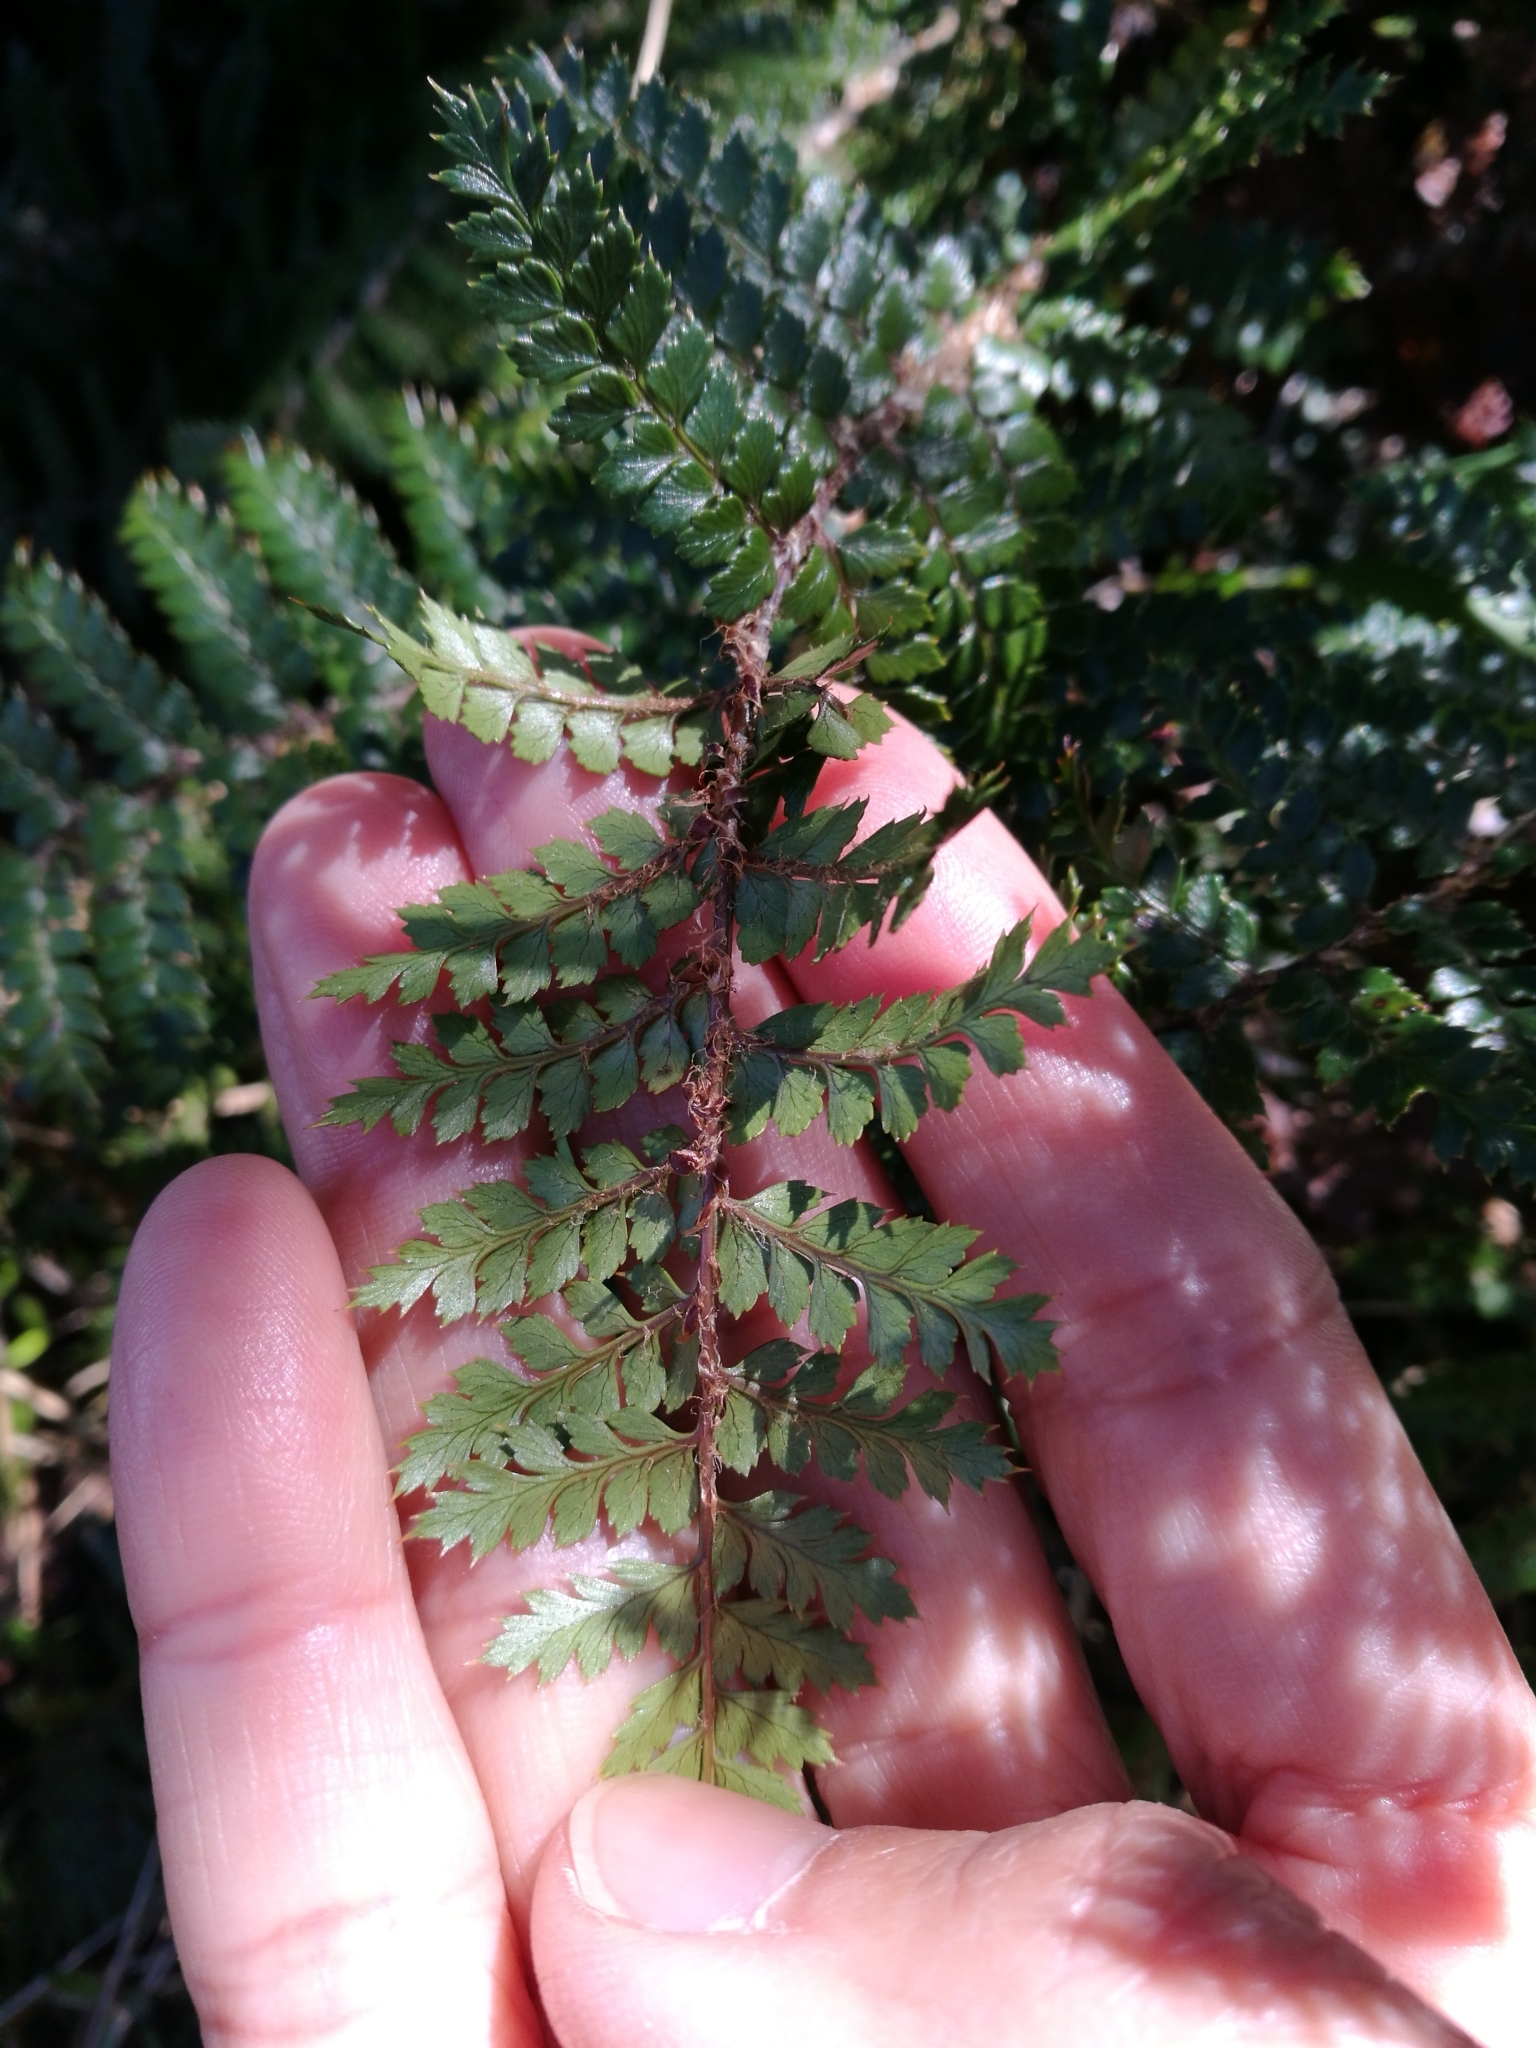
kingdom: Plantae
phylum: Tracheophyta
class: Polypodiopsida
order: Polypodiales
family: Dryopteridaceae
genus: Polystichum
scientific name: Polystichum vestitum
